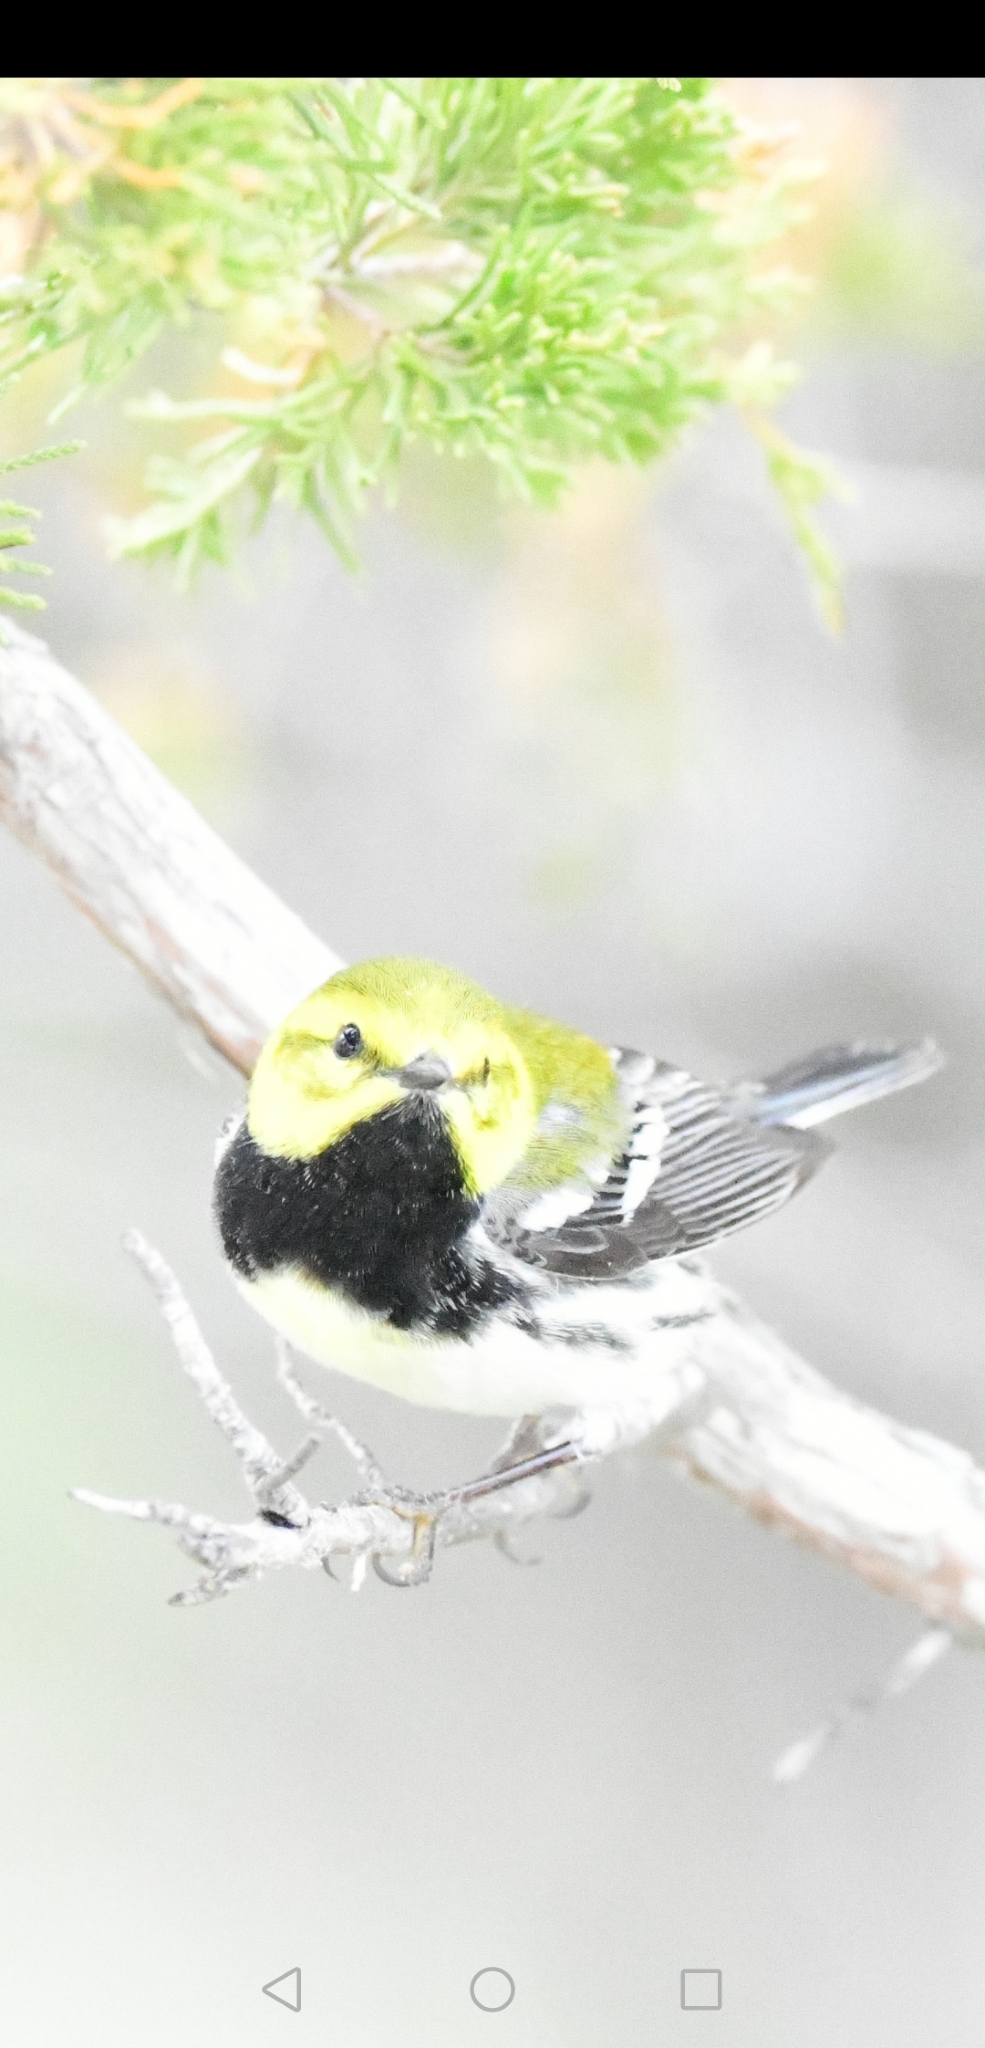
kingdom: Animalia
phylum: Chordata
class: Aves
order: Passeriformes
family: Parulidae
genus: Setophaga
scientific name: Setophaga virens
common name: Black-throated green warbler
